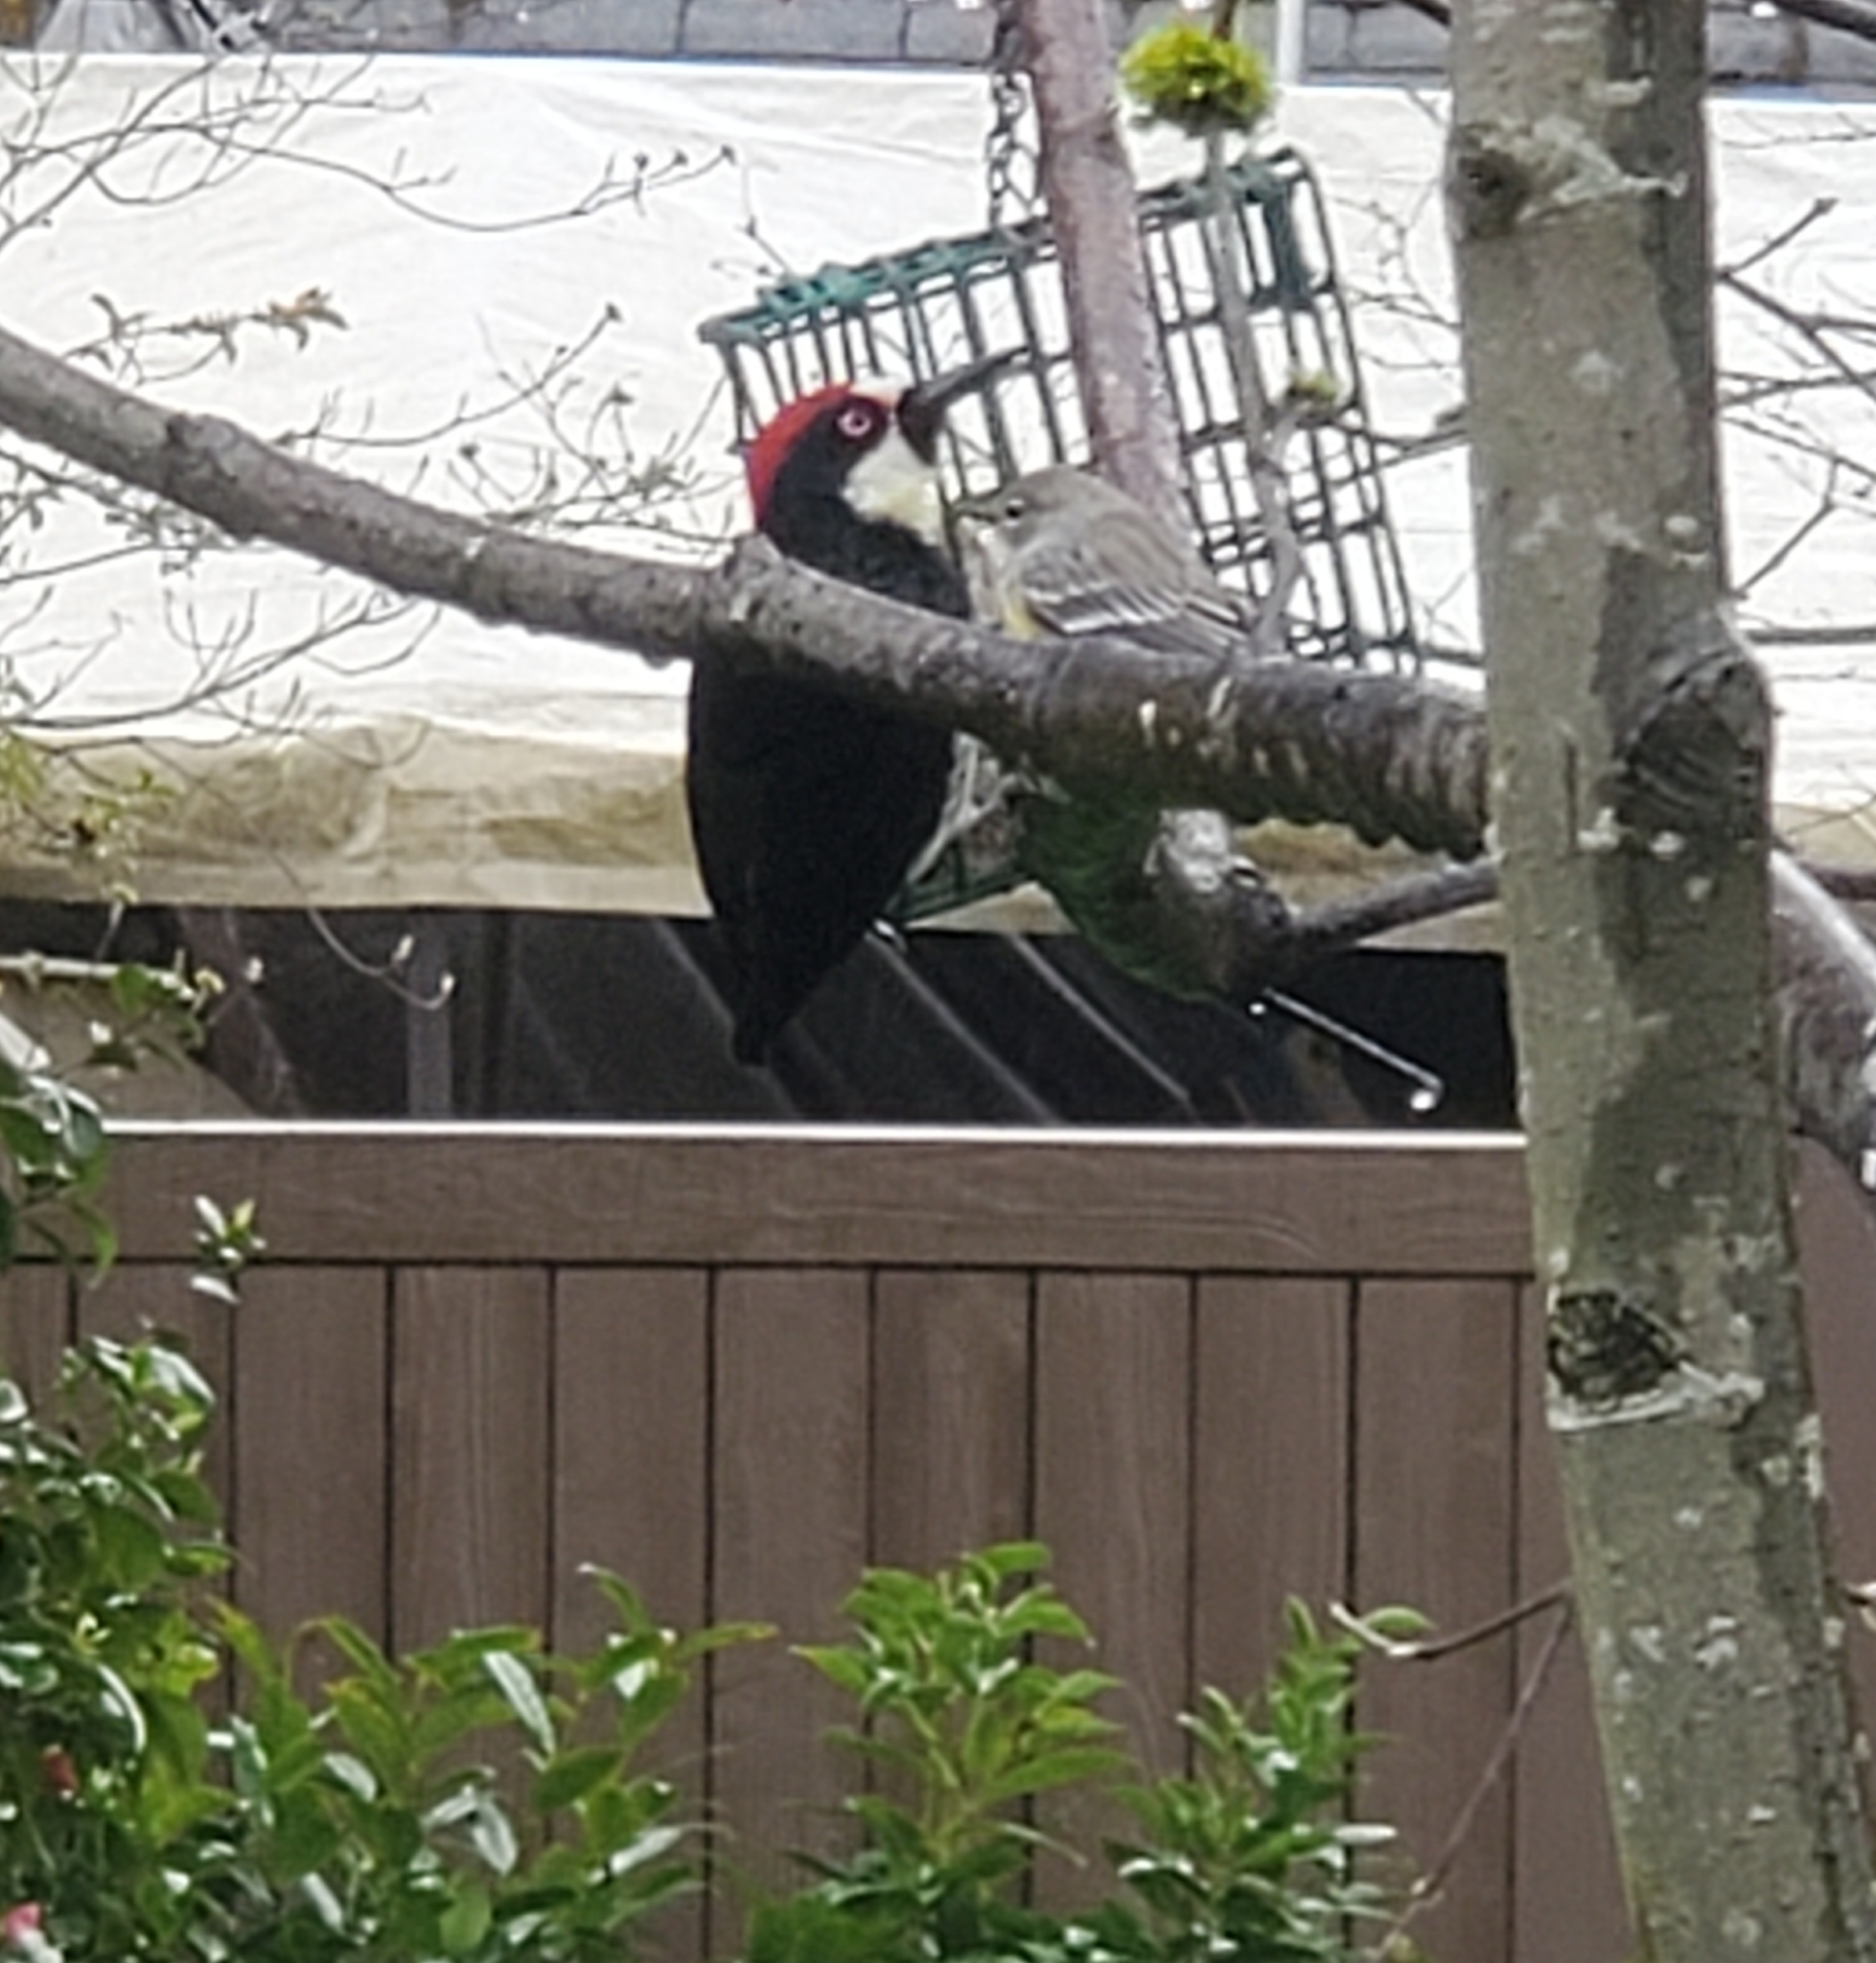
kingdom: Animalia
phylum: Chordata
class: Aves
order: Piciformes
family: Picidae
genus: Melanerpes
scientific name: Melanerpes formicivorus
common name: Acorn woodpecker
